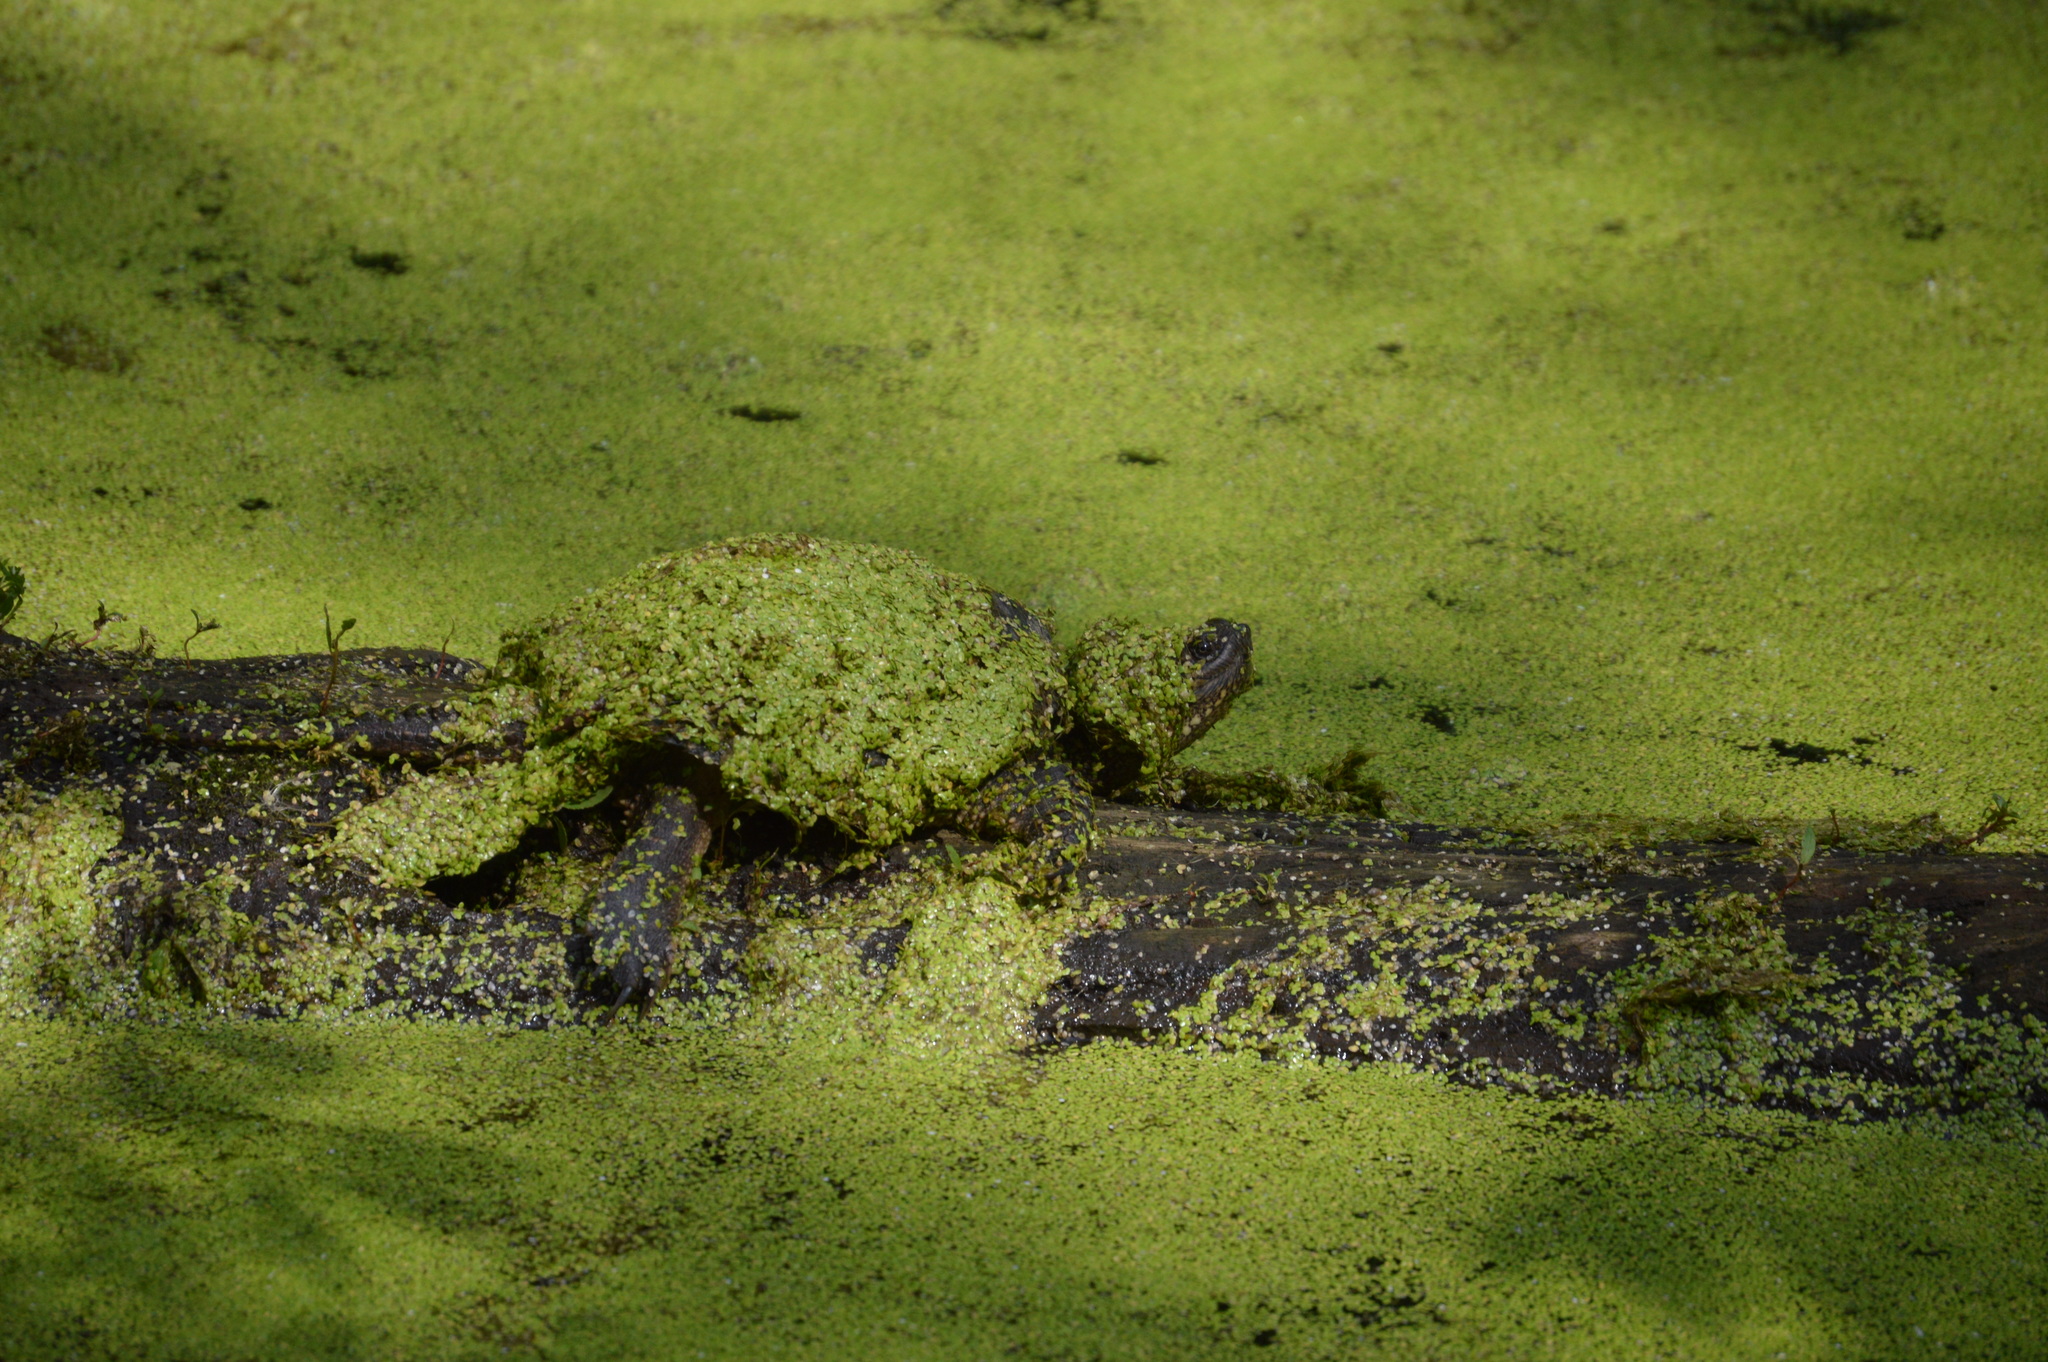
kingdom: Animalia
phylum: Chordata
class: Testudines
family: Chelydridae
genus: Chelydra
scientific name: Chelydra serpentina
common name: Common snapping turtle
